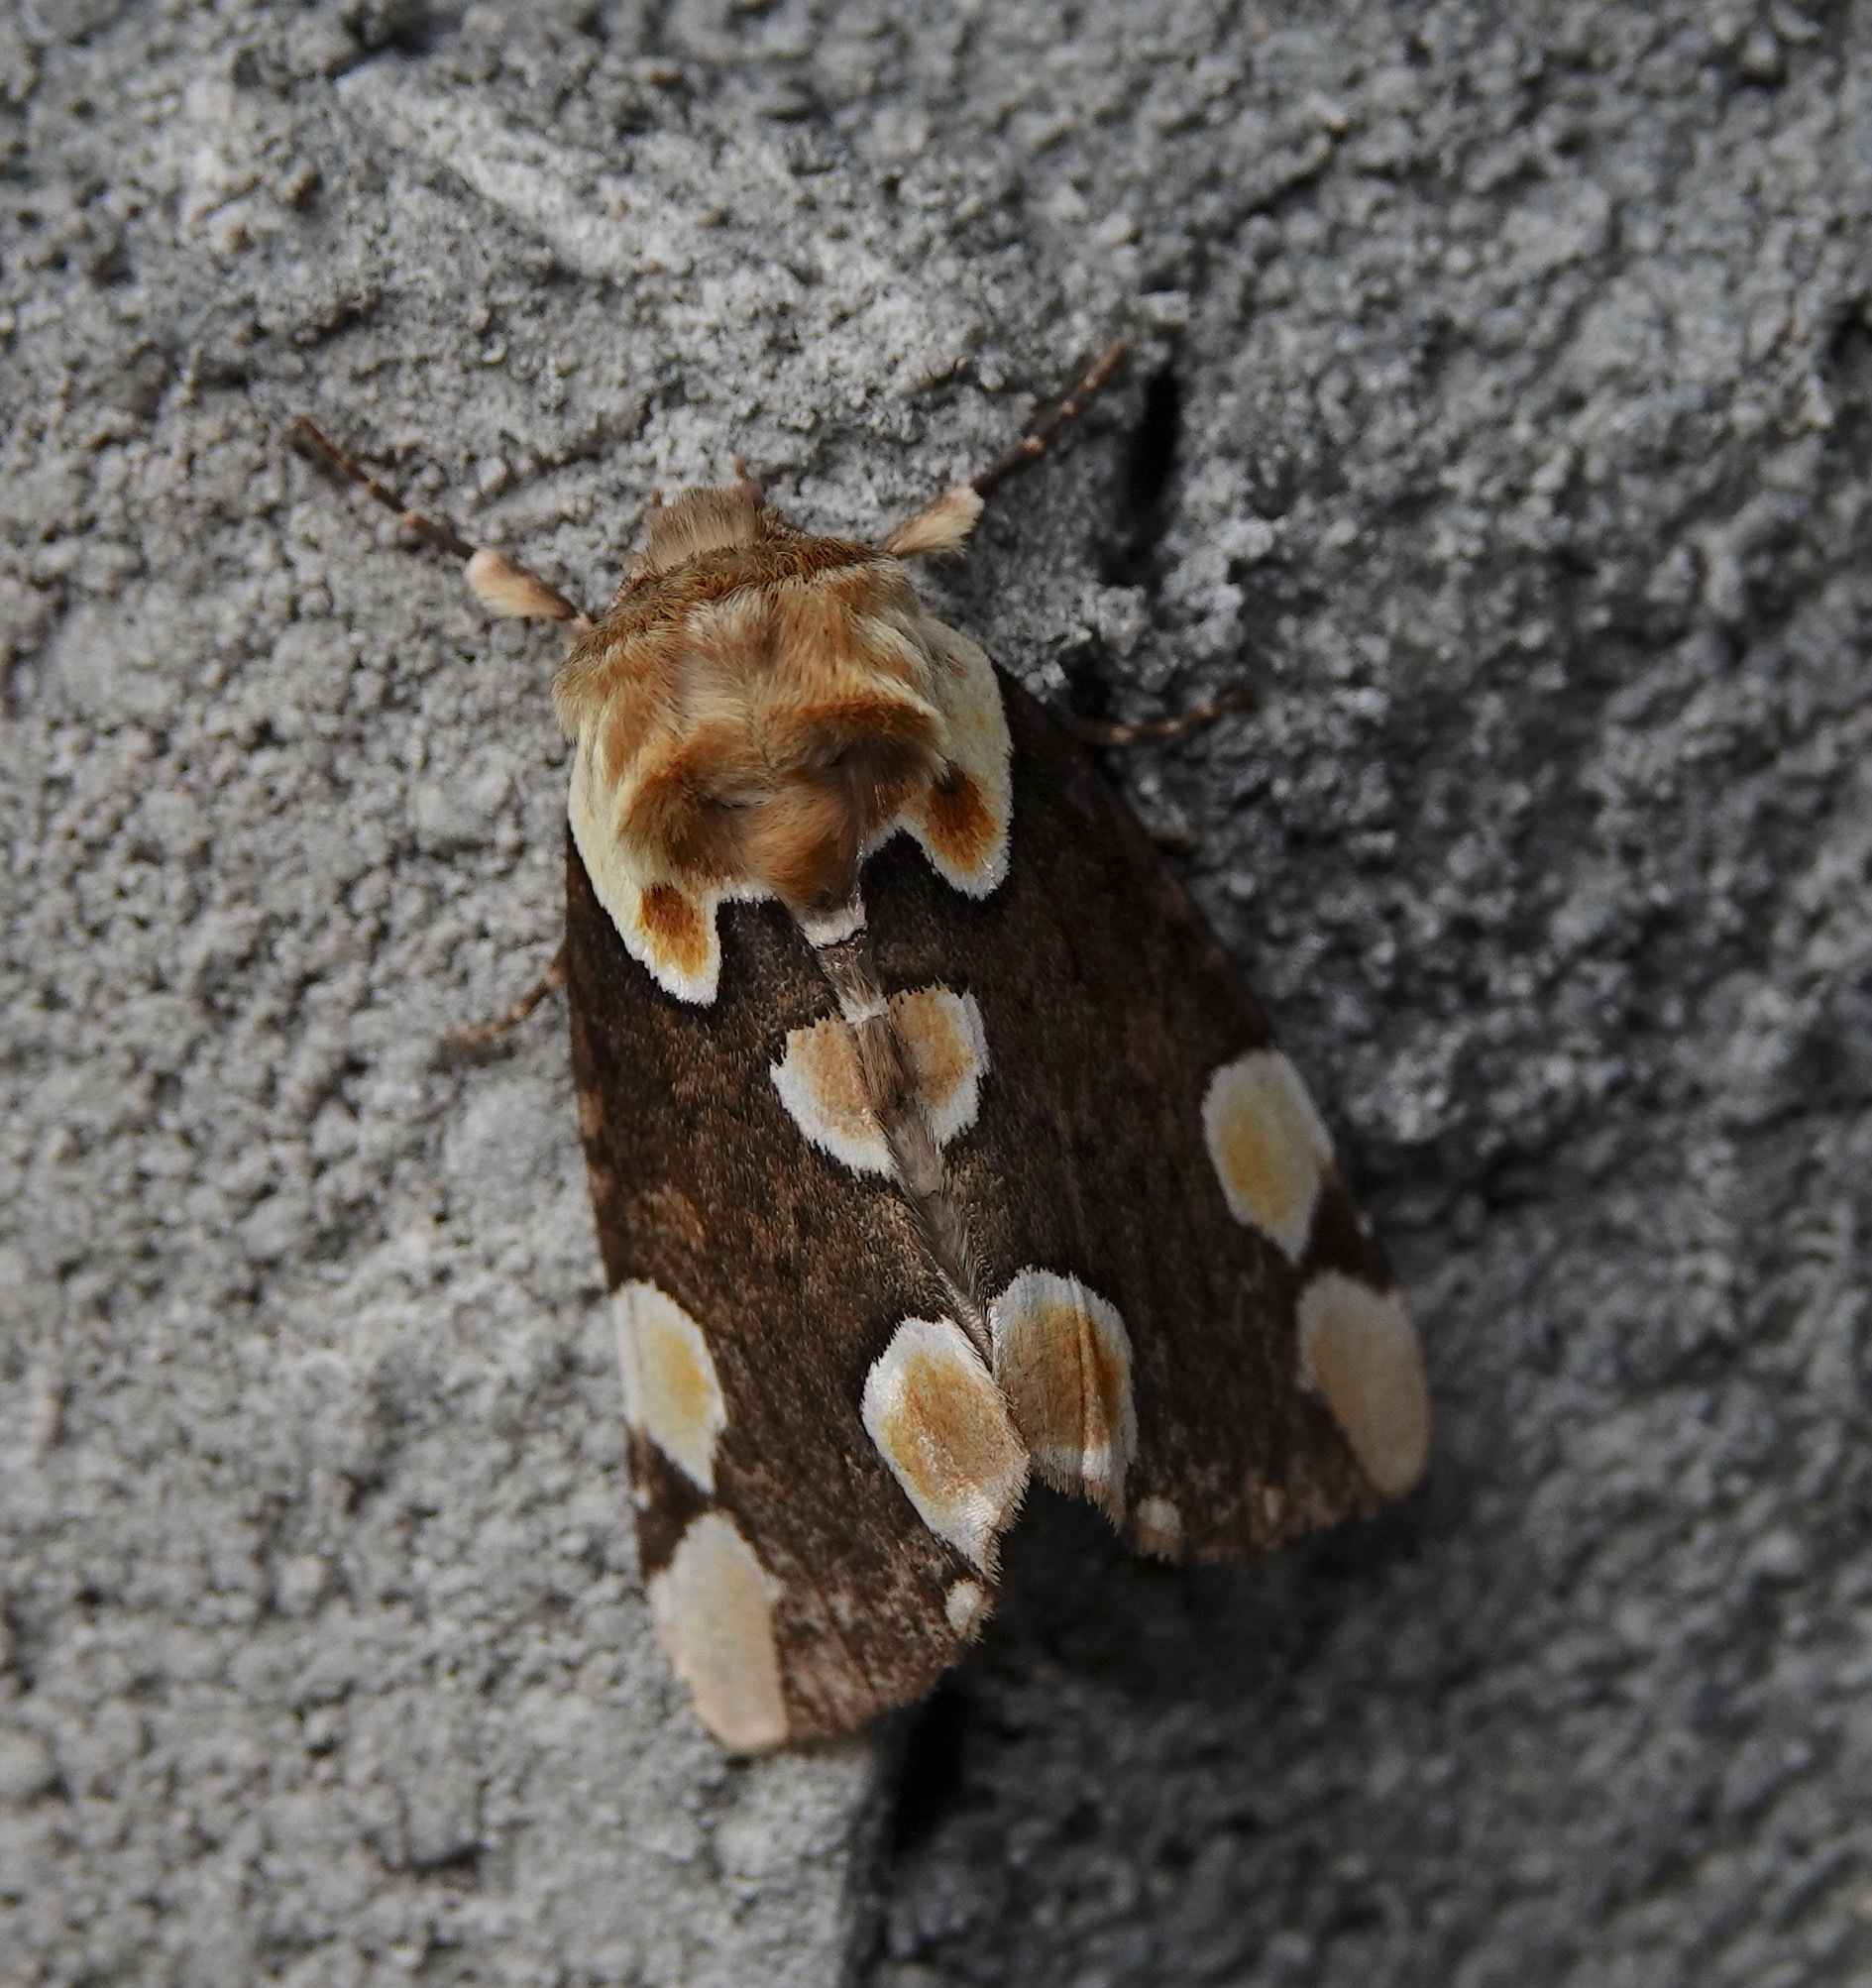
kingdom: Animalia
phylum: Arthropoda
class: Insecta
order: Lepidoptera
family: Drepanidae
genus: Thyatira
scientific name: Thyatira batis
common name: Peach blossom
